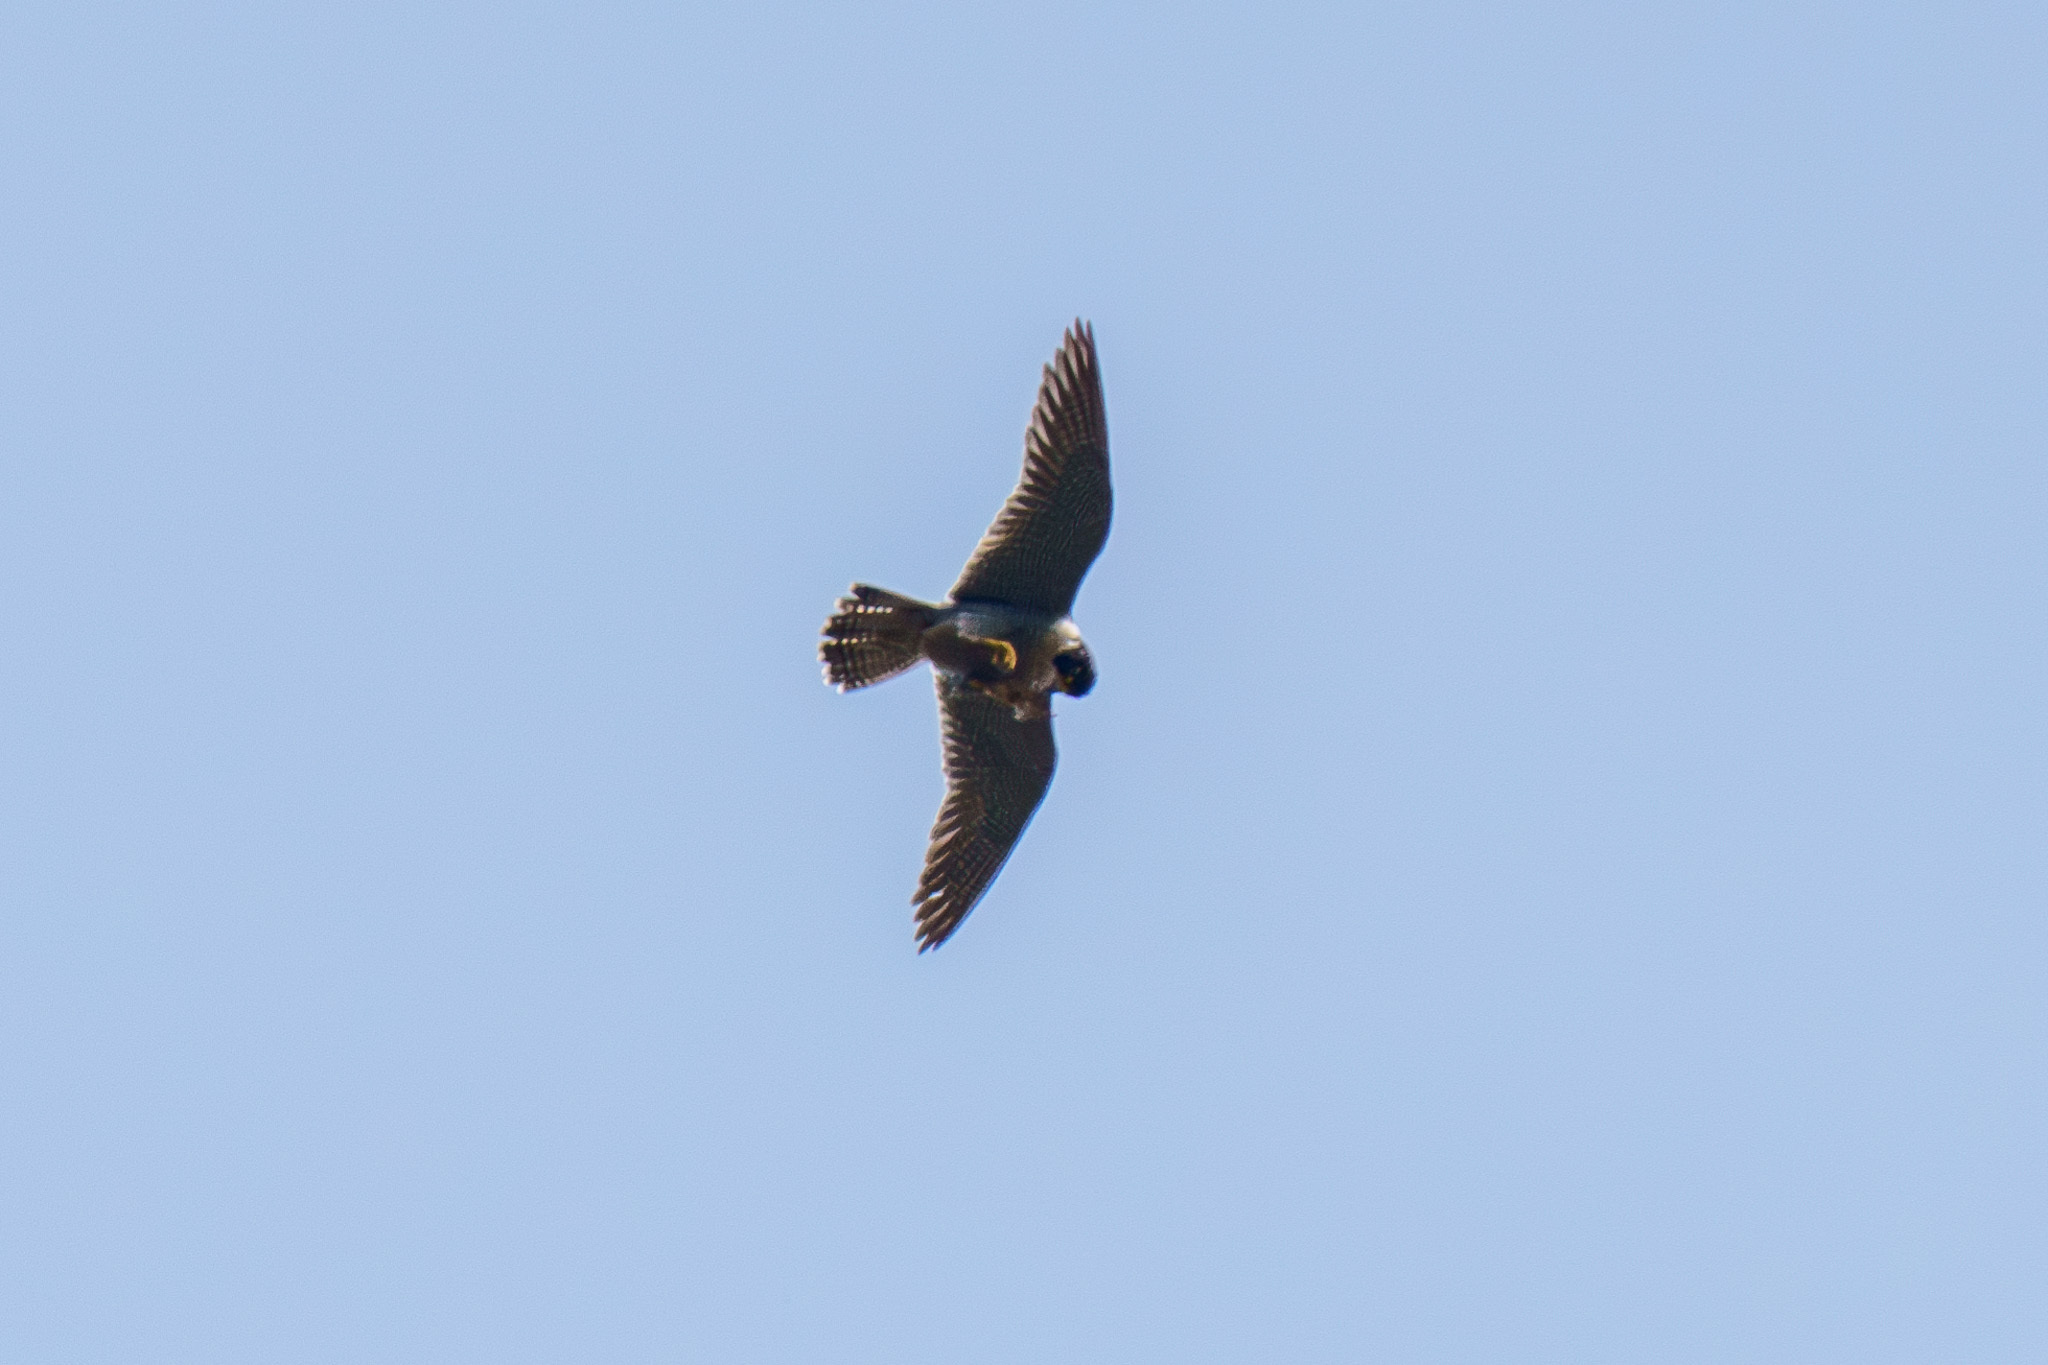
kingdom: Animalia
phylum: Chordata
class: Aves
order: Falconiformes
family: Falconidae
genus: Falco
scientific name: Falco peregrinus
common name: Peregrine falcon
